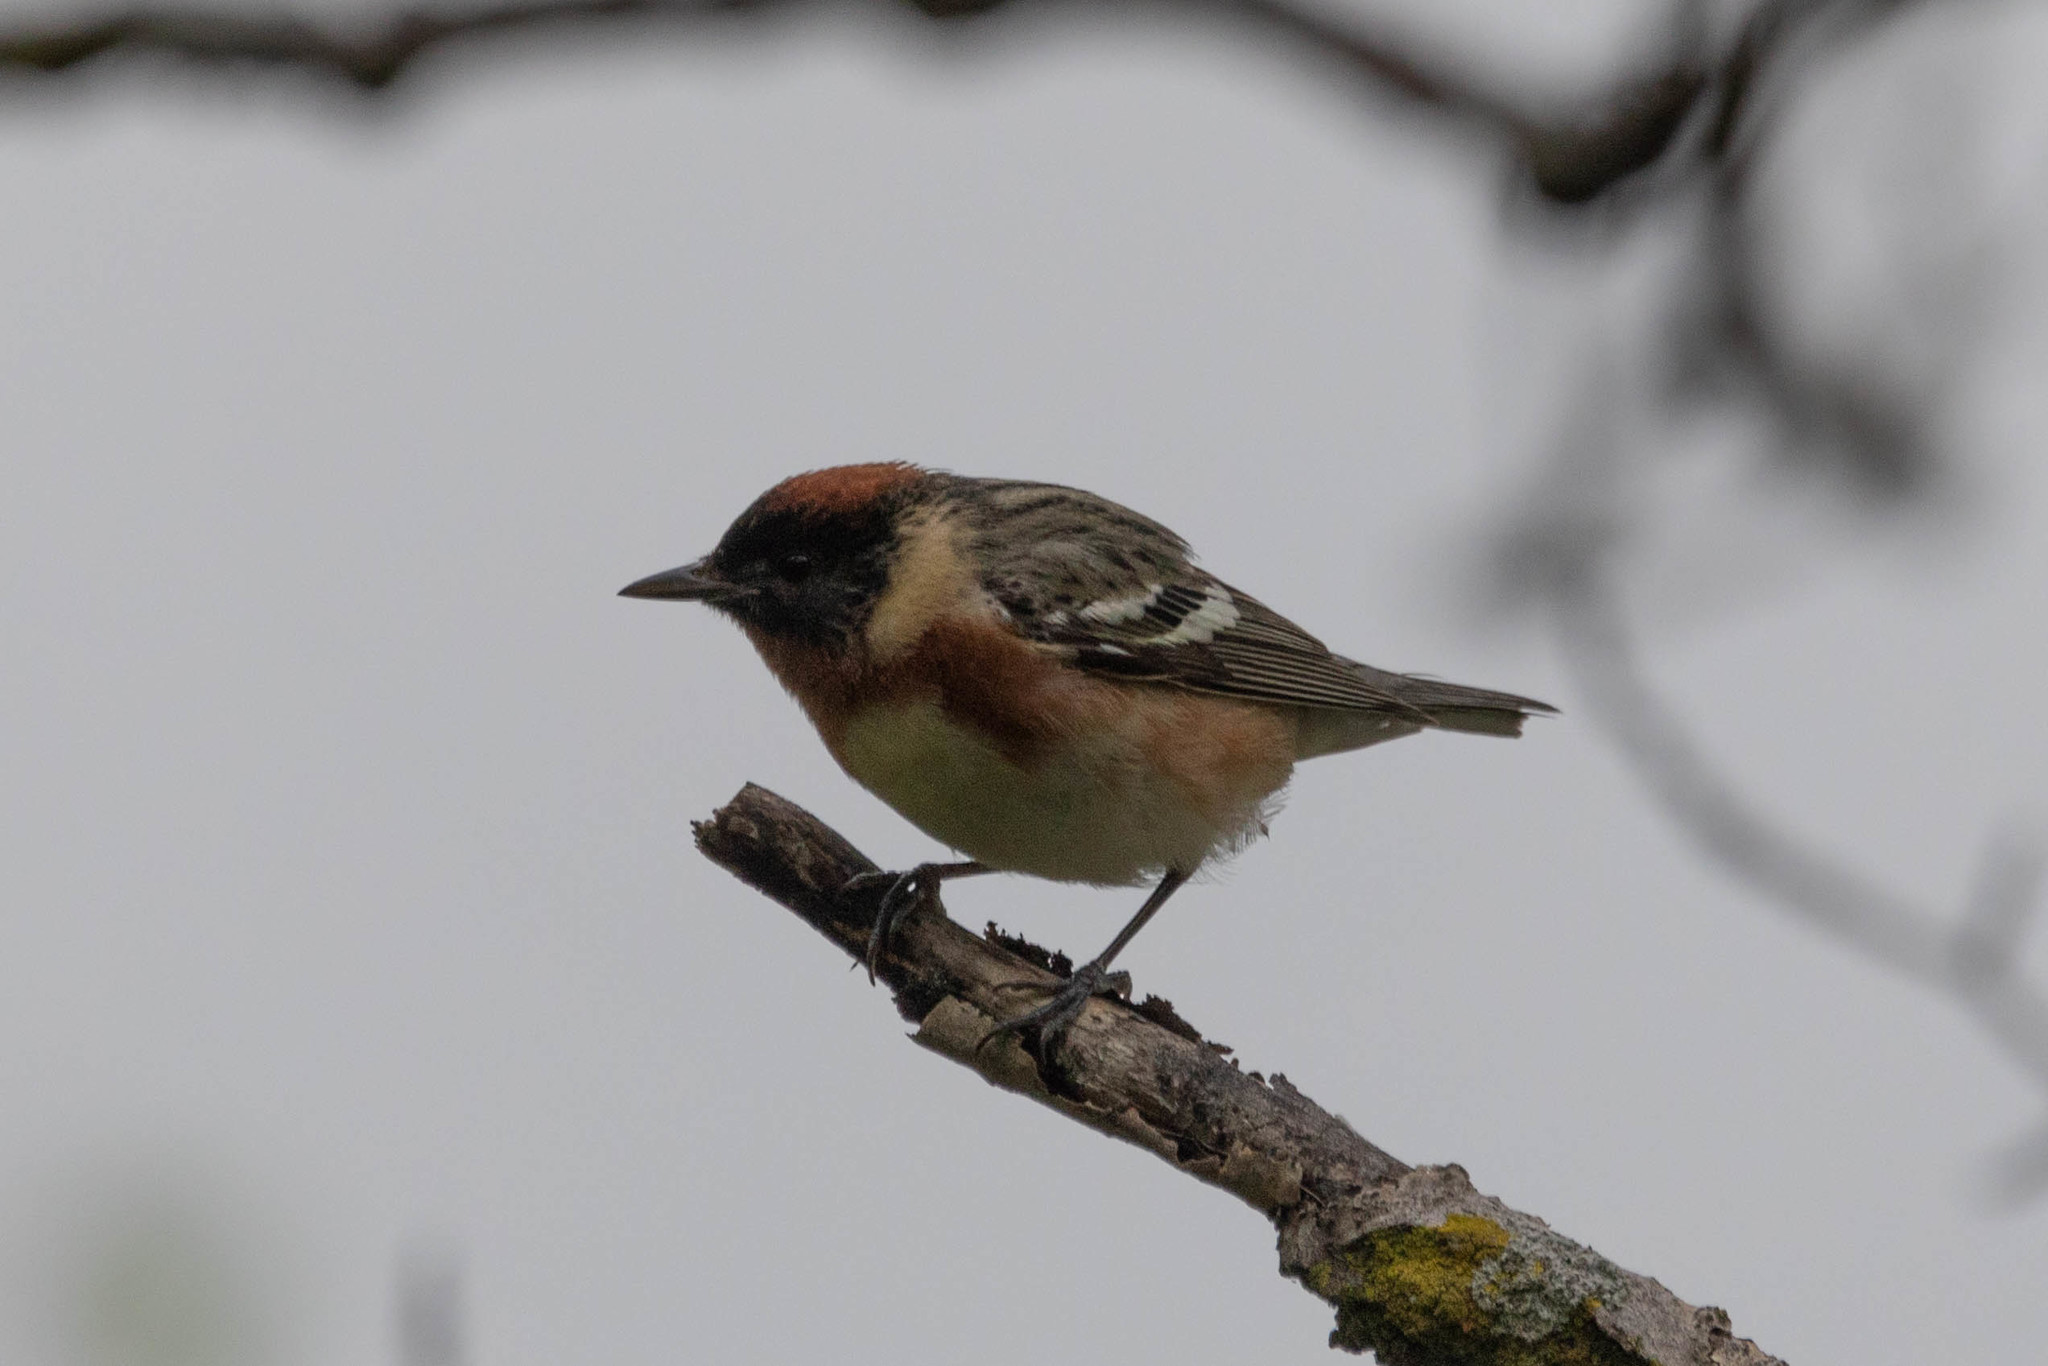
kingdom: Animalia
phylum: Chordata
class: Aves
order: Passeriformes
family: Parulidae
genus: Setophaga
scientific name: Setophaga castanea
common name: Bay-breasted warbler
